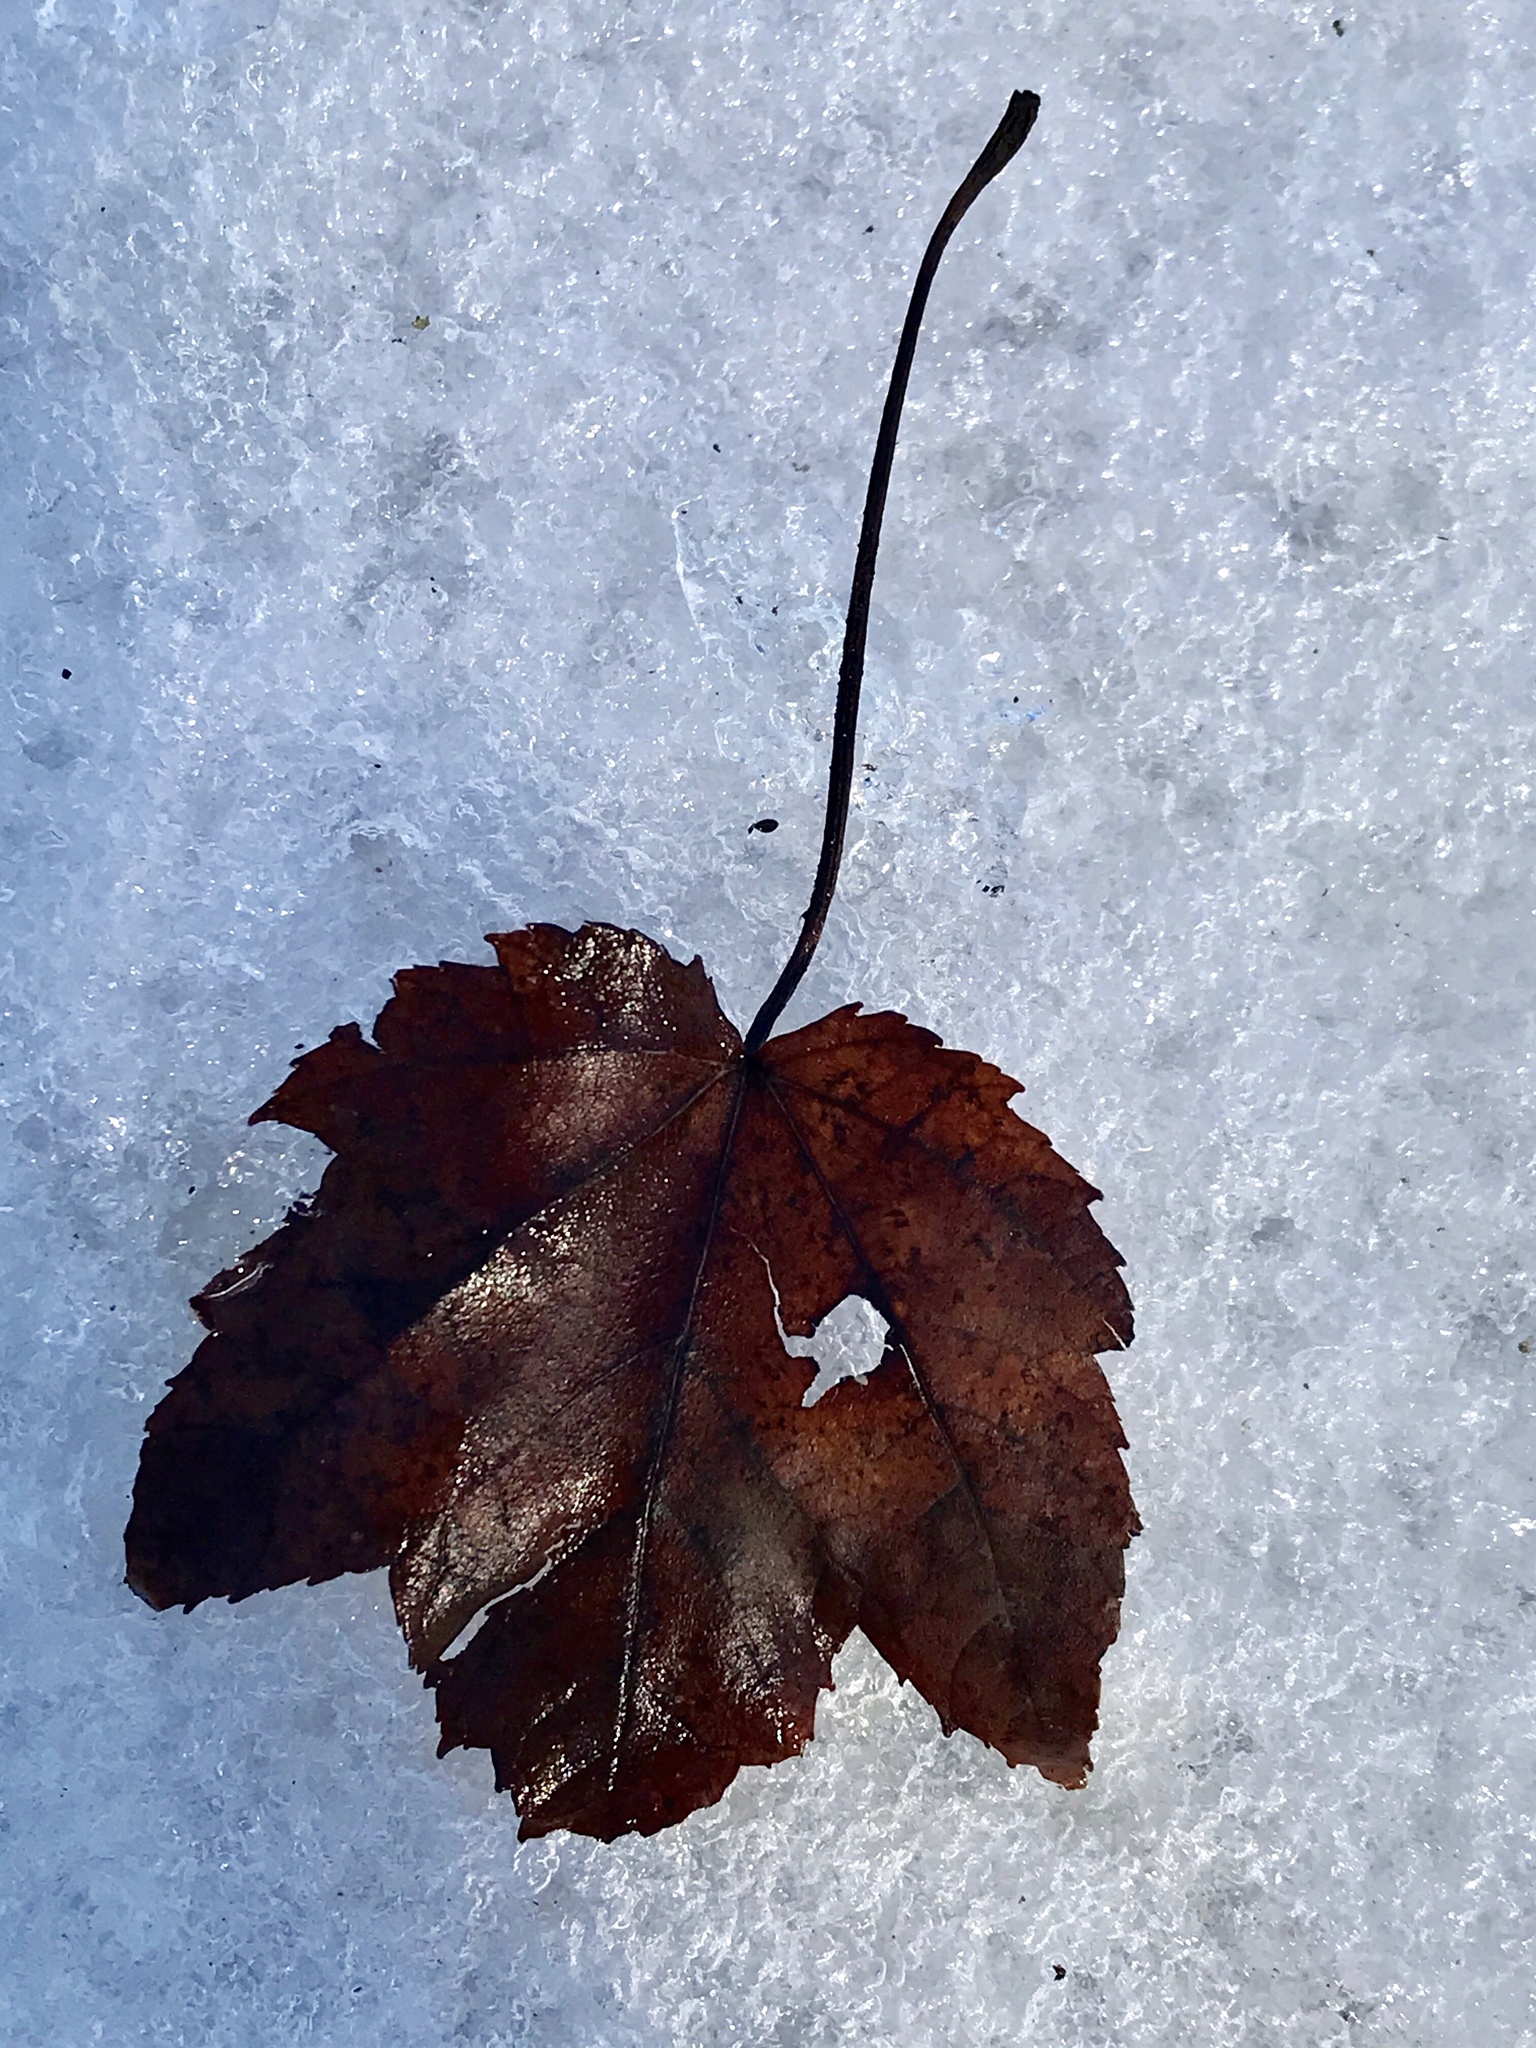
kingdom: Plantae
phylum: Tracheophyta
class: Magnoliopsida
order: Sapindales
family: Sapindaceae
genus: Acer
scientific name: Acer rubrum
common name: Red maple
